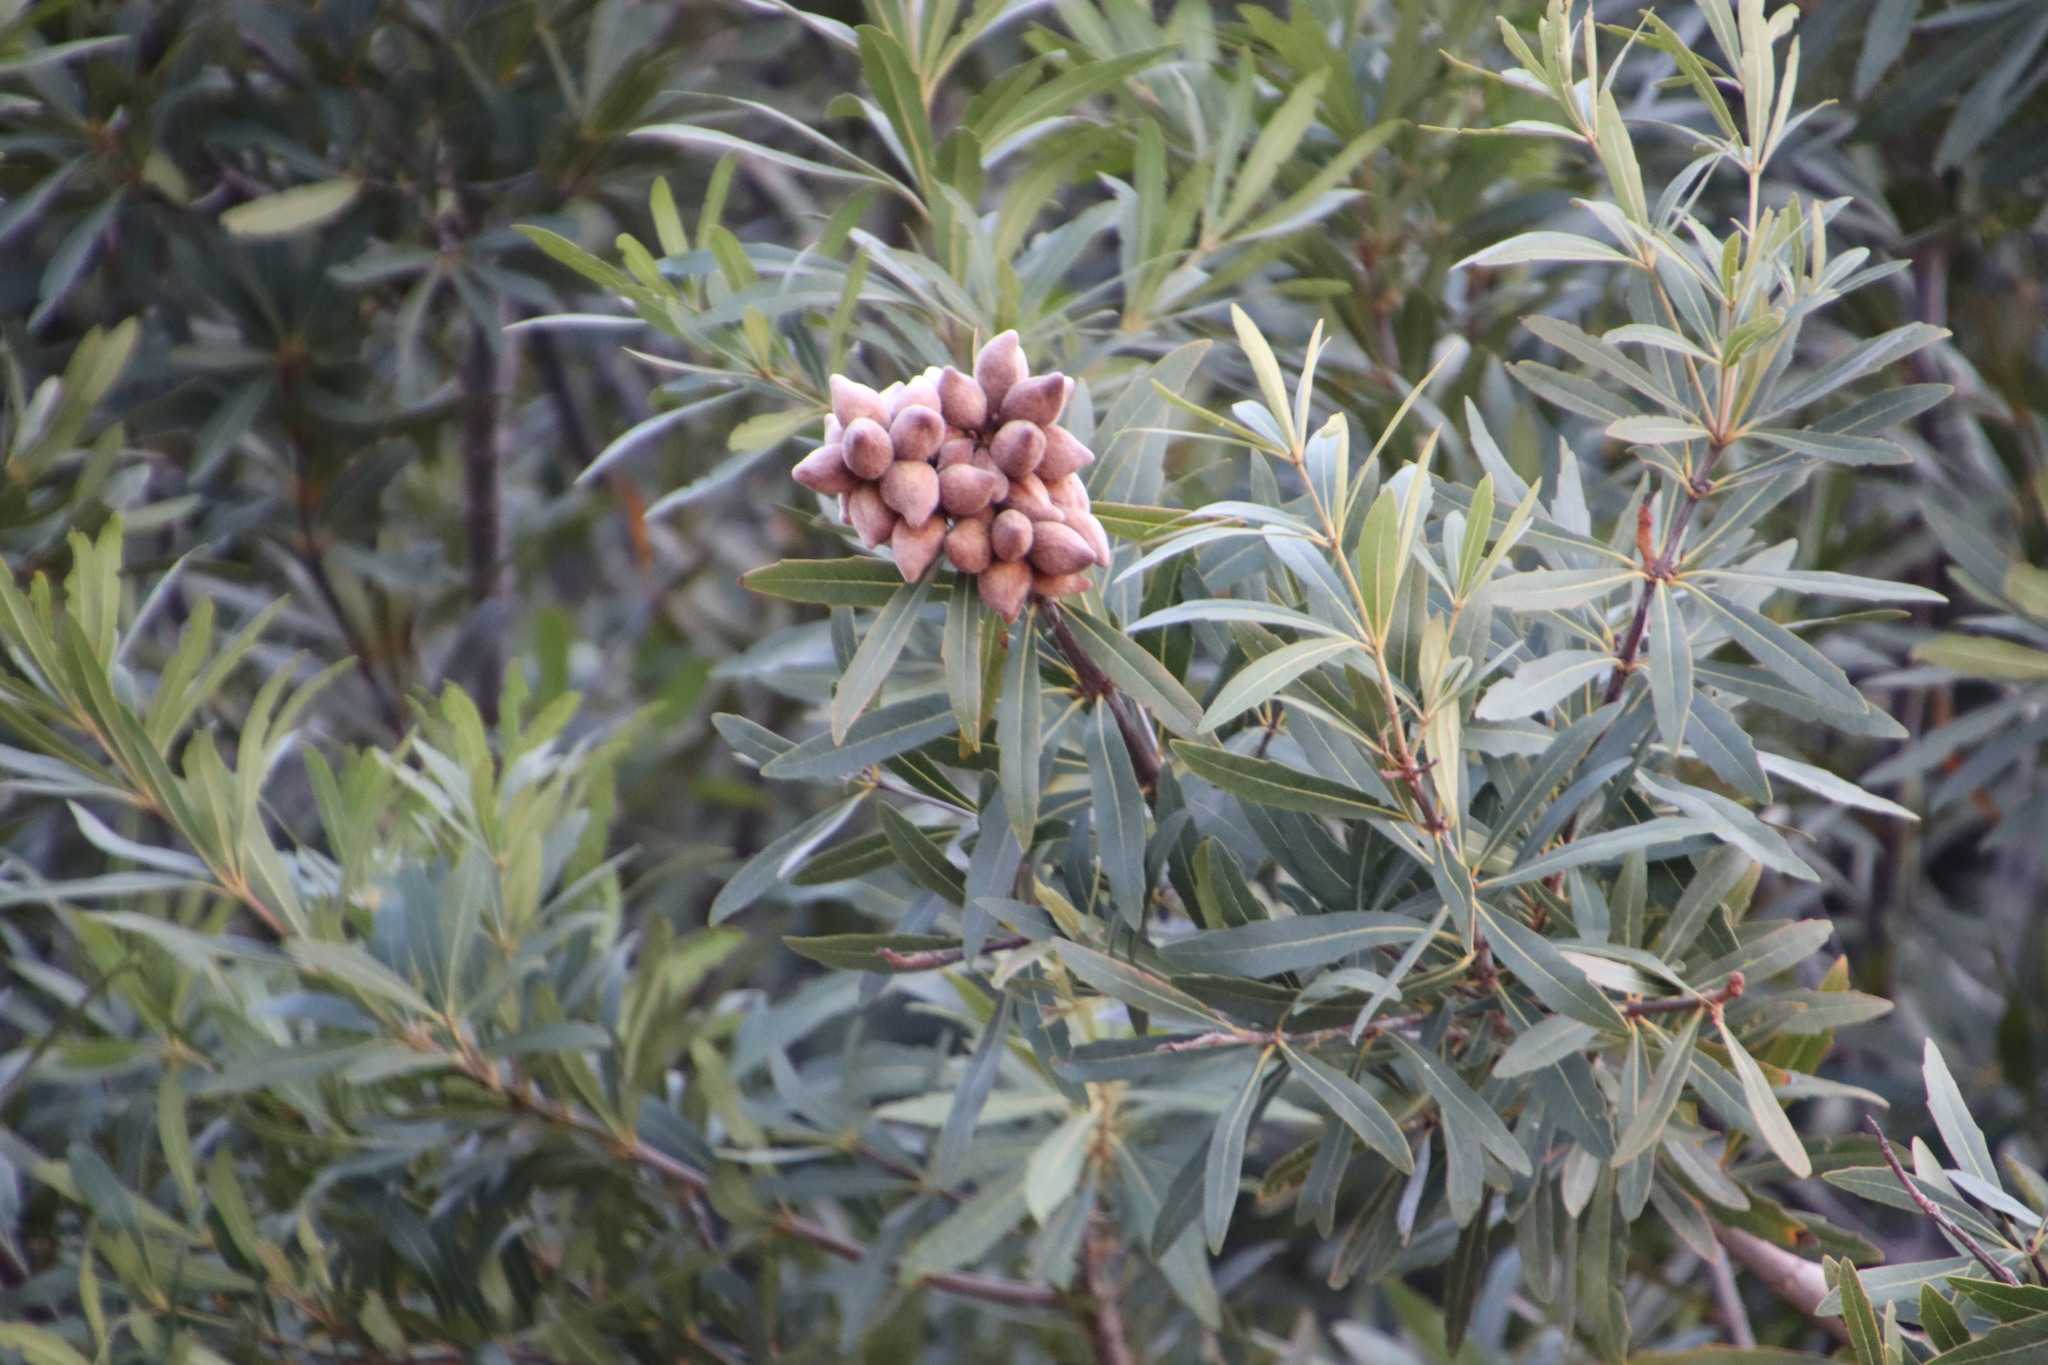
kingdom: Plantae
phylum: Tracheophyta
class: Magnoliopsida
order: Proteales
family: Proteaceae
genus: Brabejum
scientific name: Brabejum stellatifolium
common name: Wild almond
